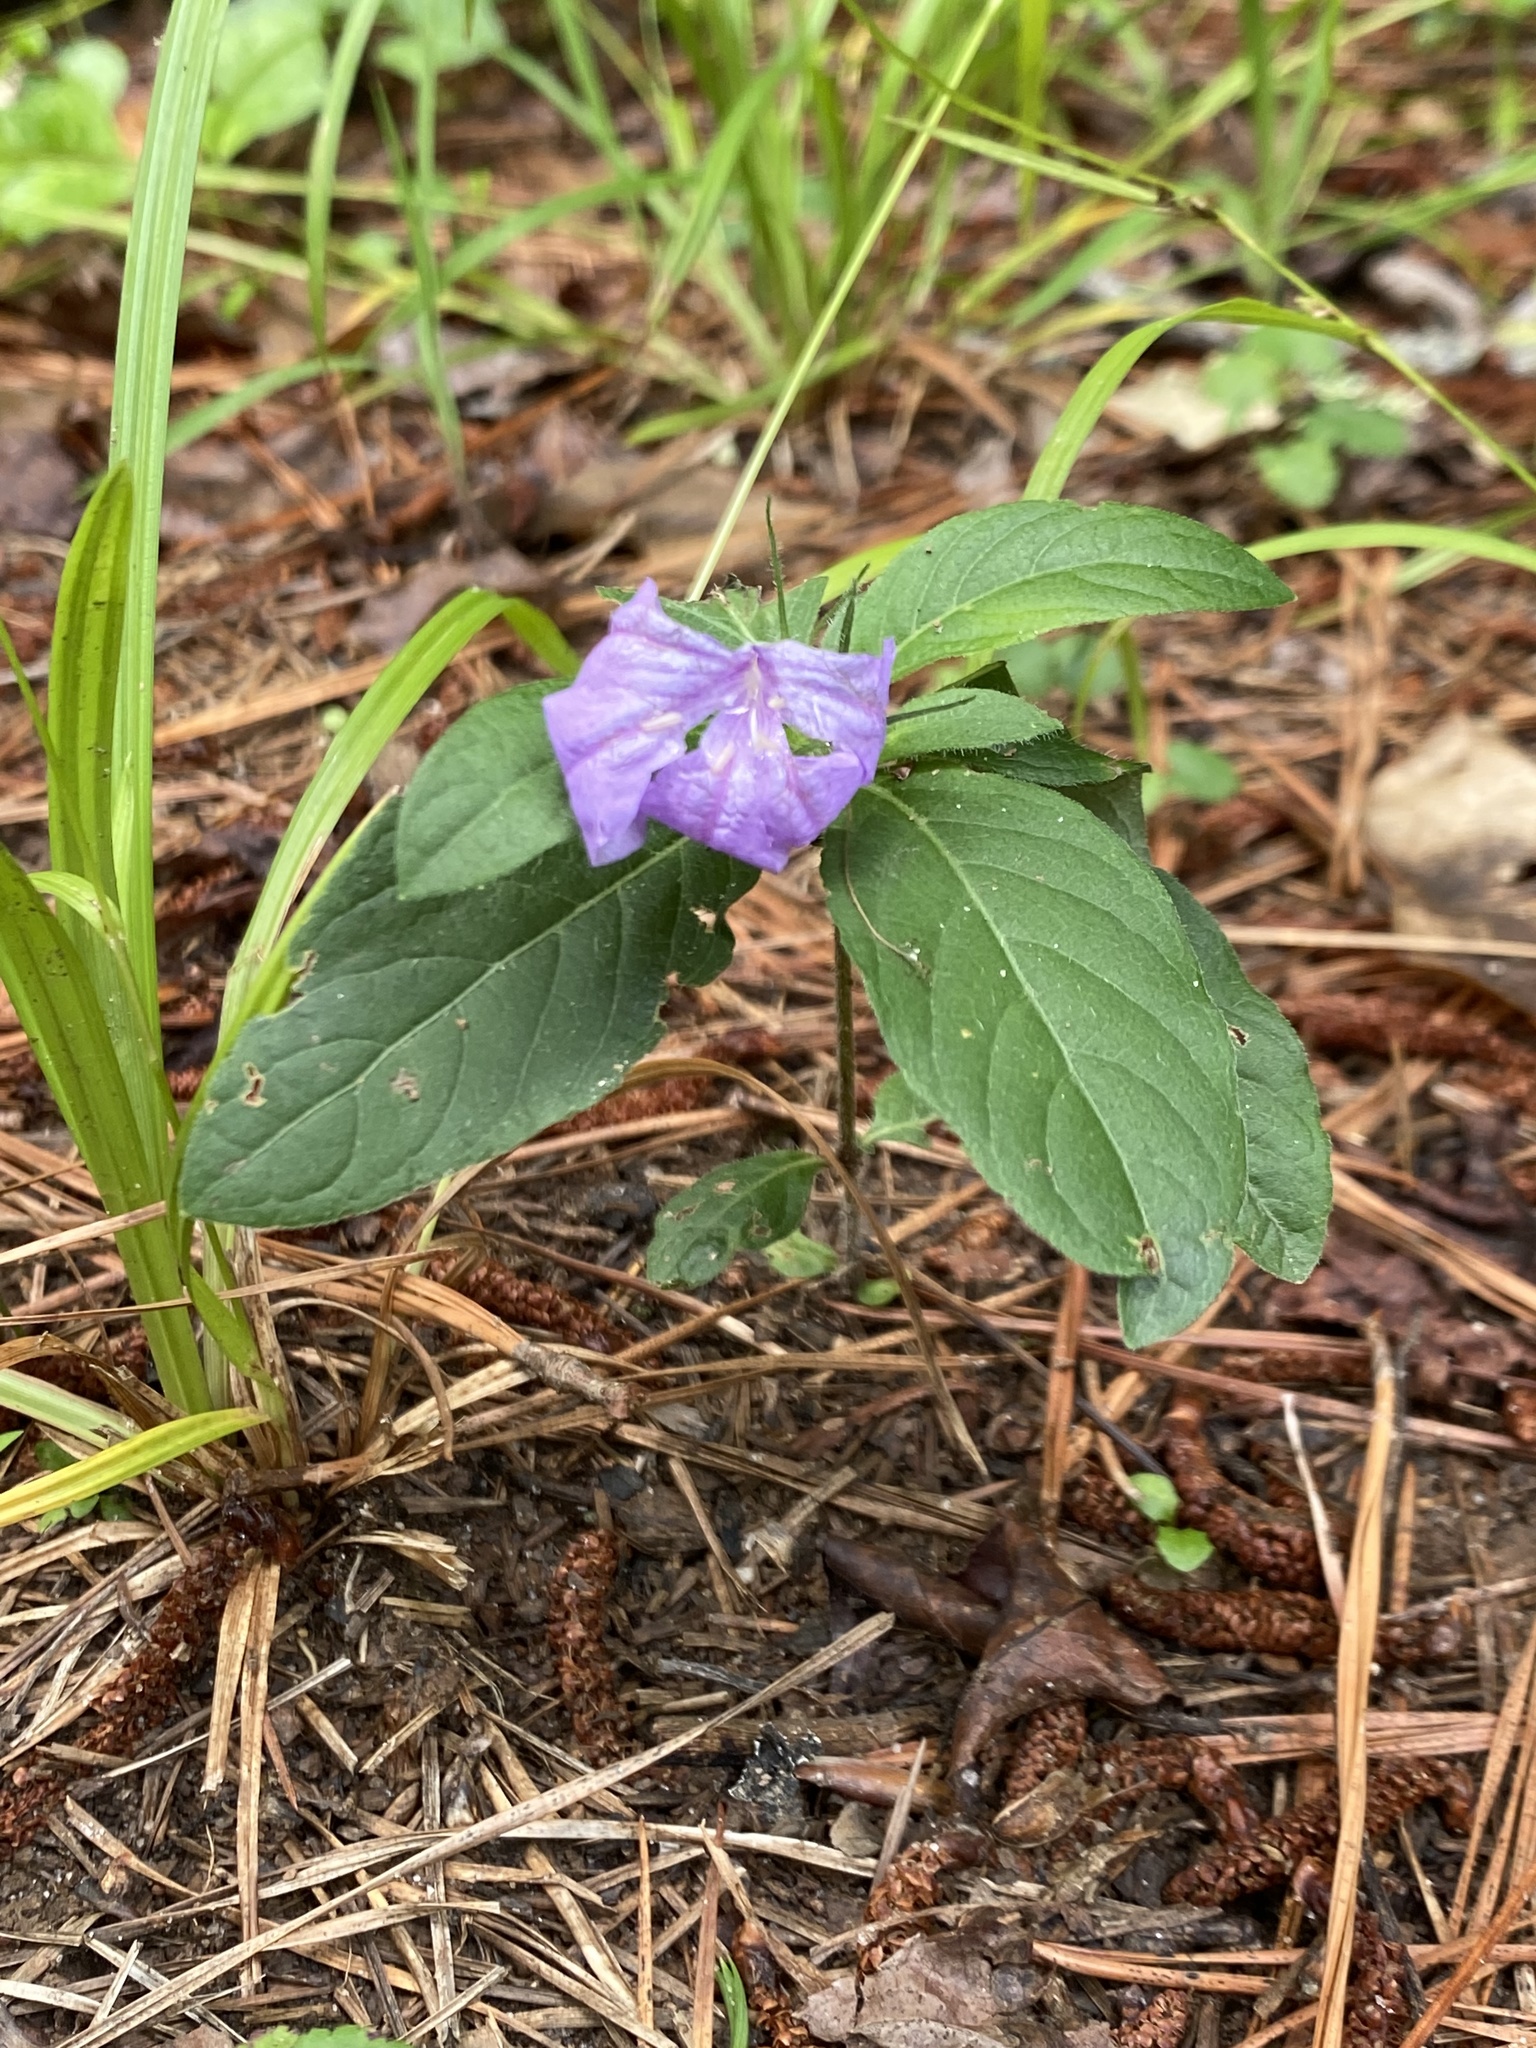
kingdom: Plantae
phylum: Tracheophyta
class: Magnoliopsida
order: Lamiales
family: Acanthaceae
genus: Ruellia
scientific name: Ruellia caroliniensis
